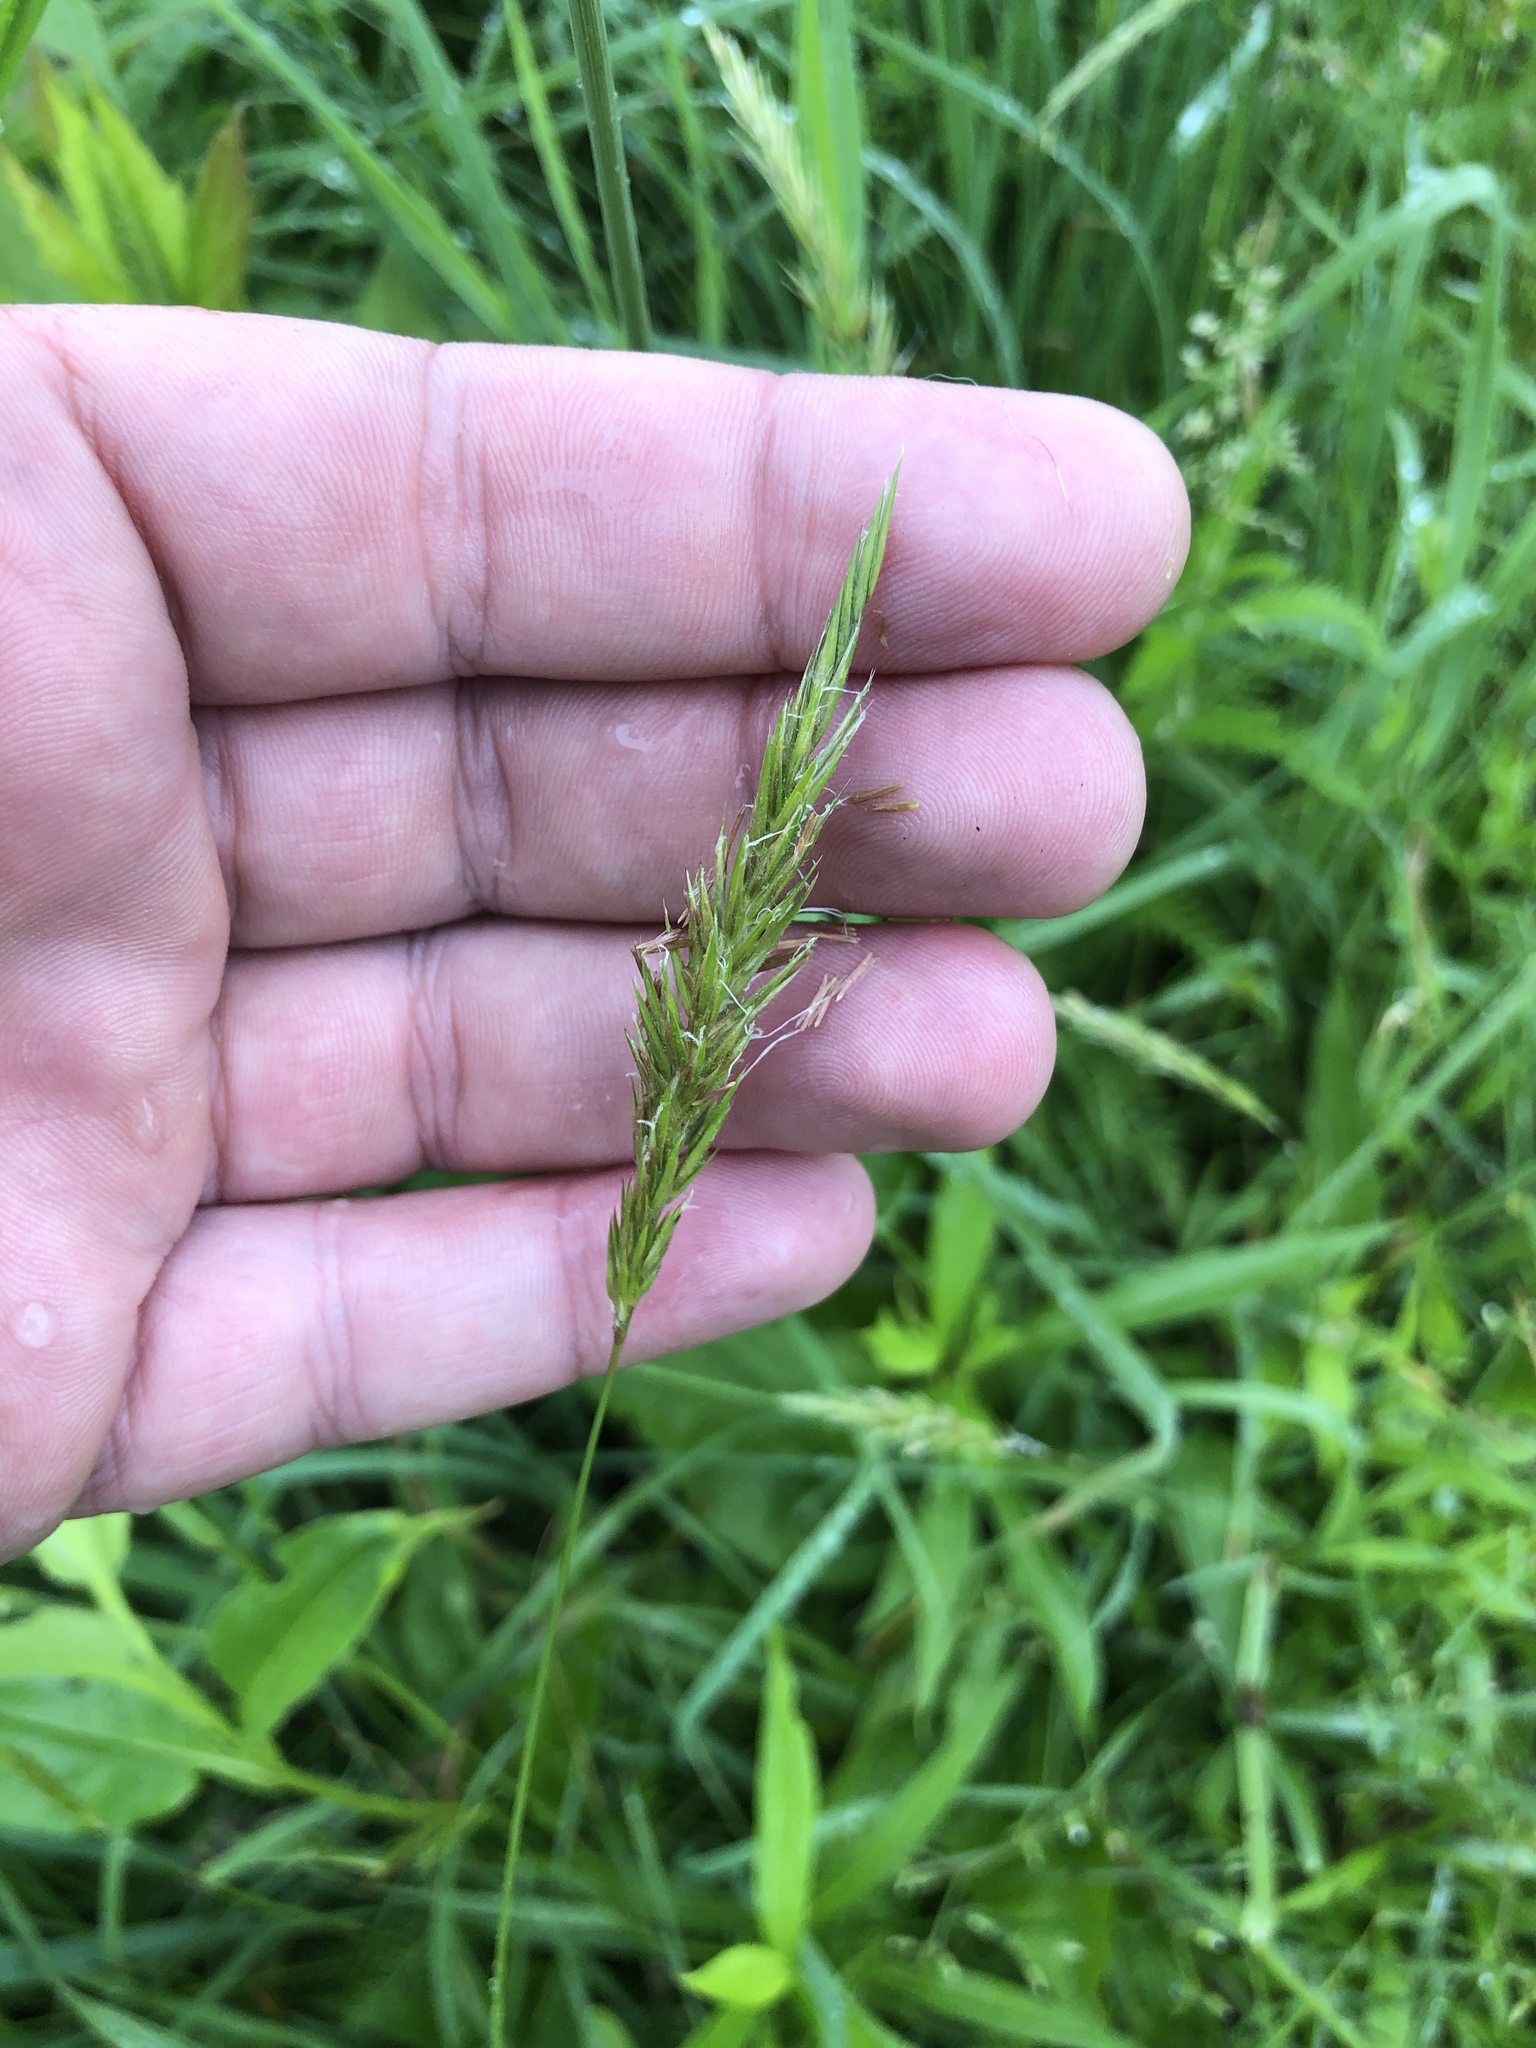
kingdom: Plantae
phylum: Tracheophyta
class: Liliopsida
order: Poales
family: Poaceae
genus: Anthoxanthum
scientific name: Anthoxanthum odoratum
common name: Sweet vernalgrass
